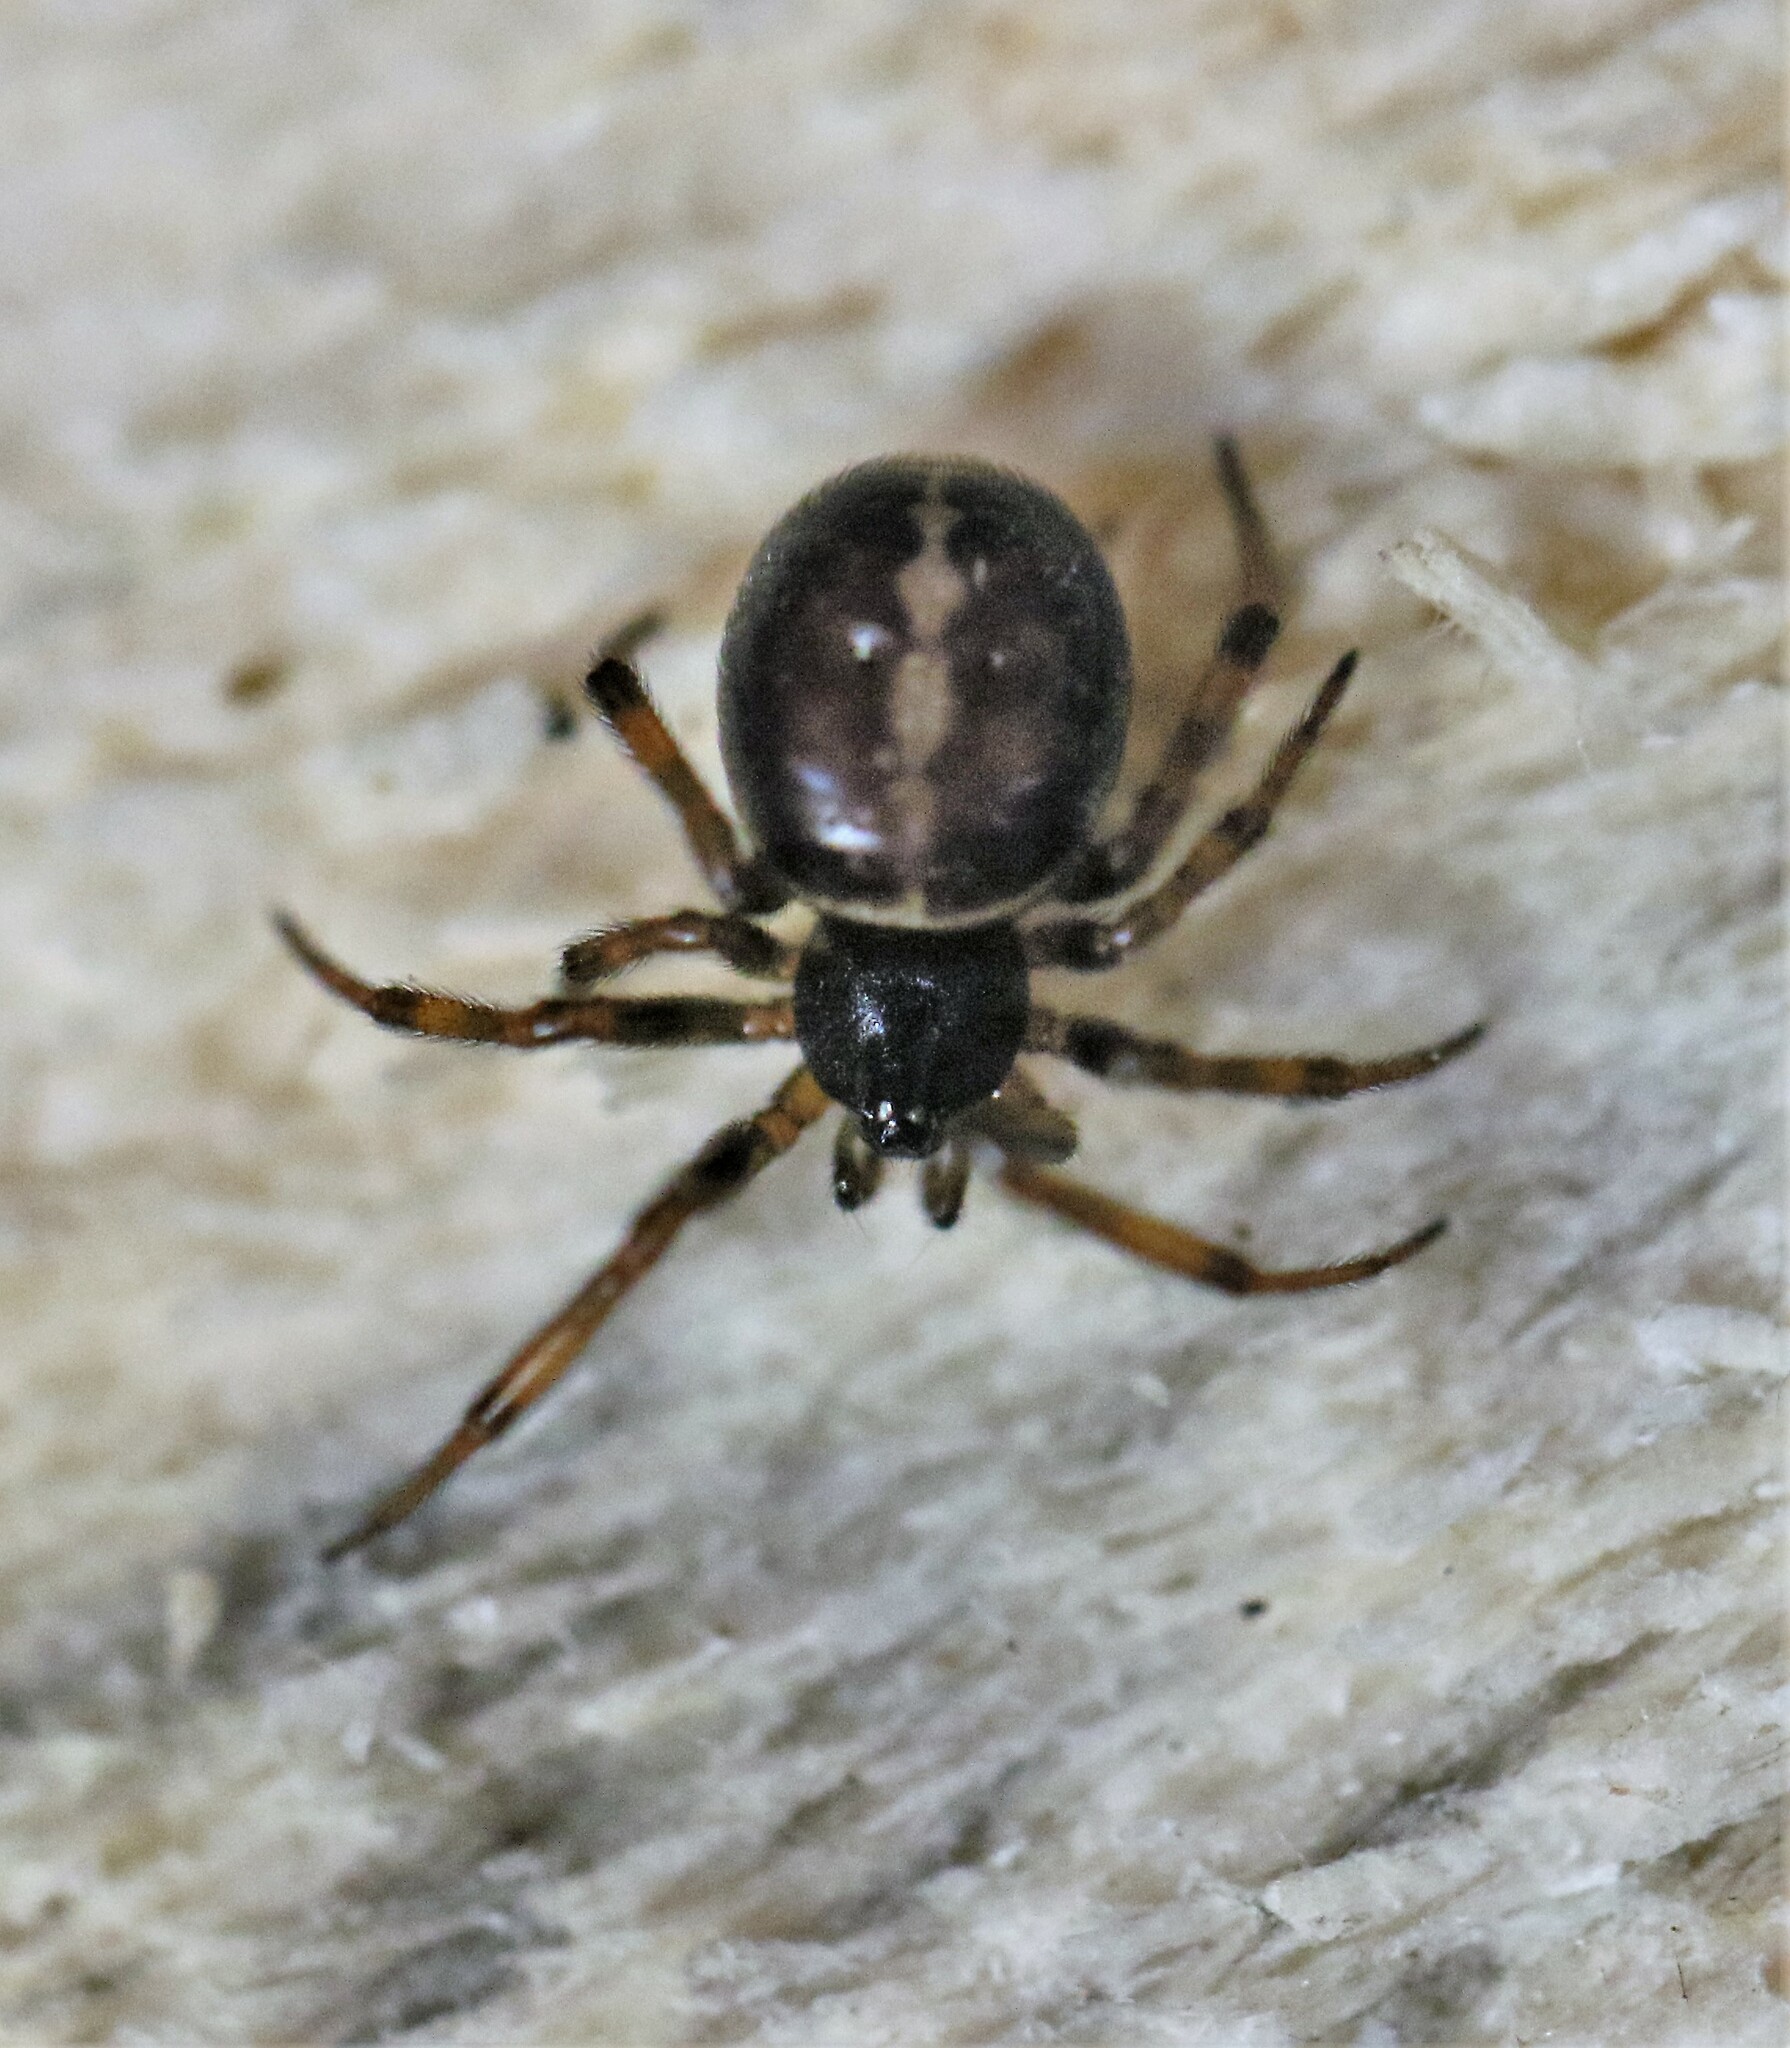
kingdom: Animalia
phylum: Arthropoda
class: Arachnida
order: Araneae
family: Theridiidae
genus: Steatoda
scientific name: Steatoda borealis
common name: Boreal combfoot
